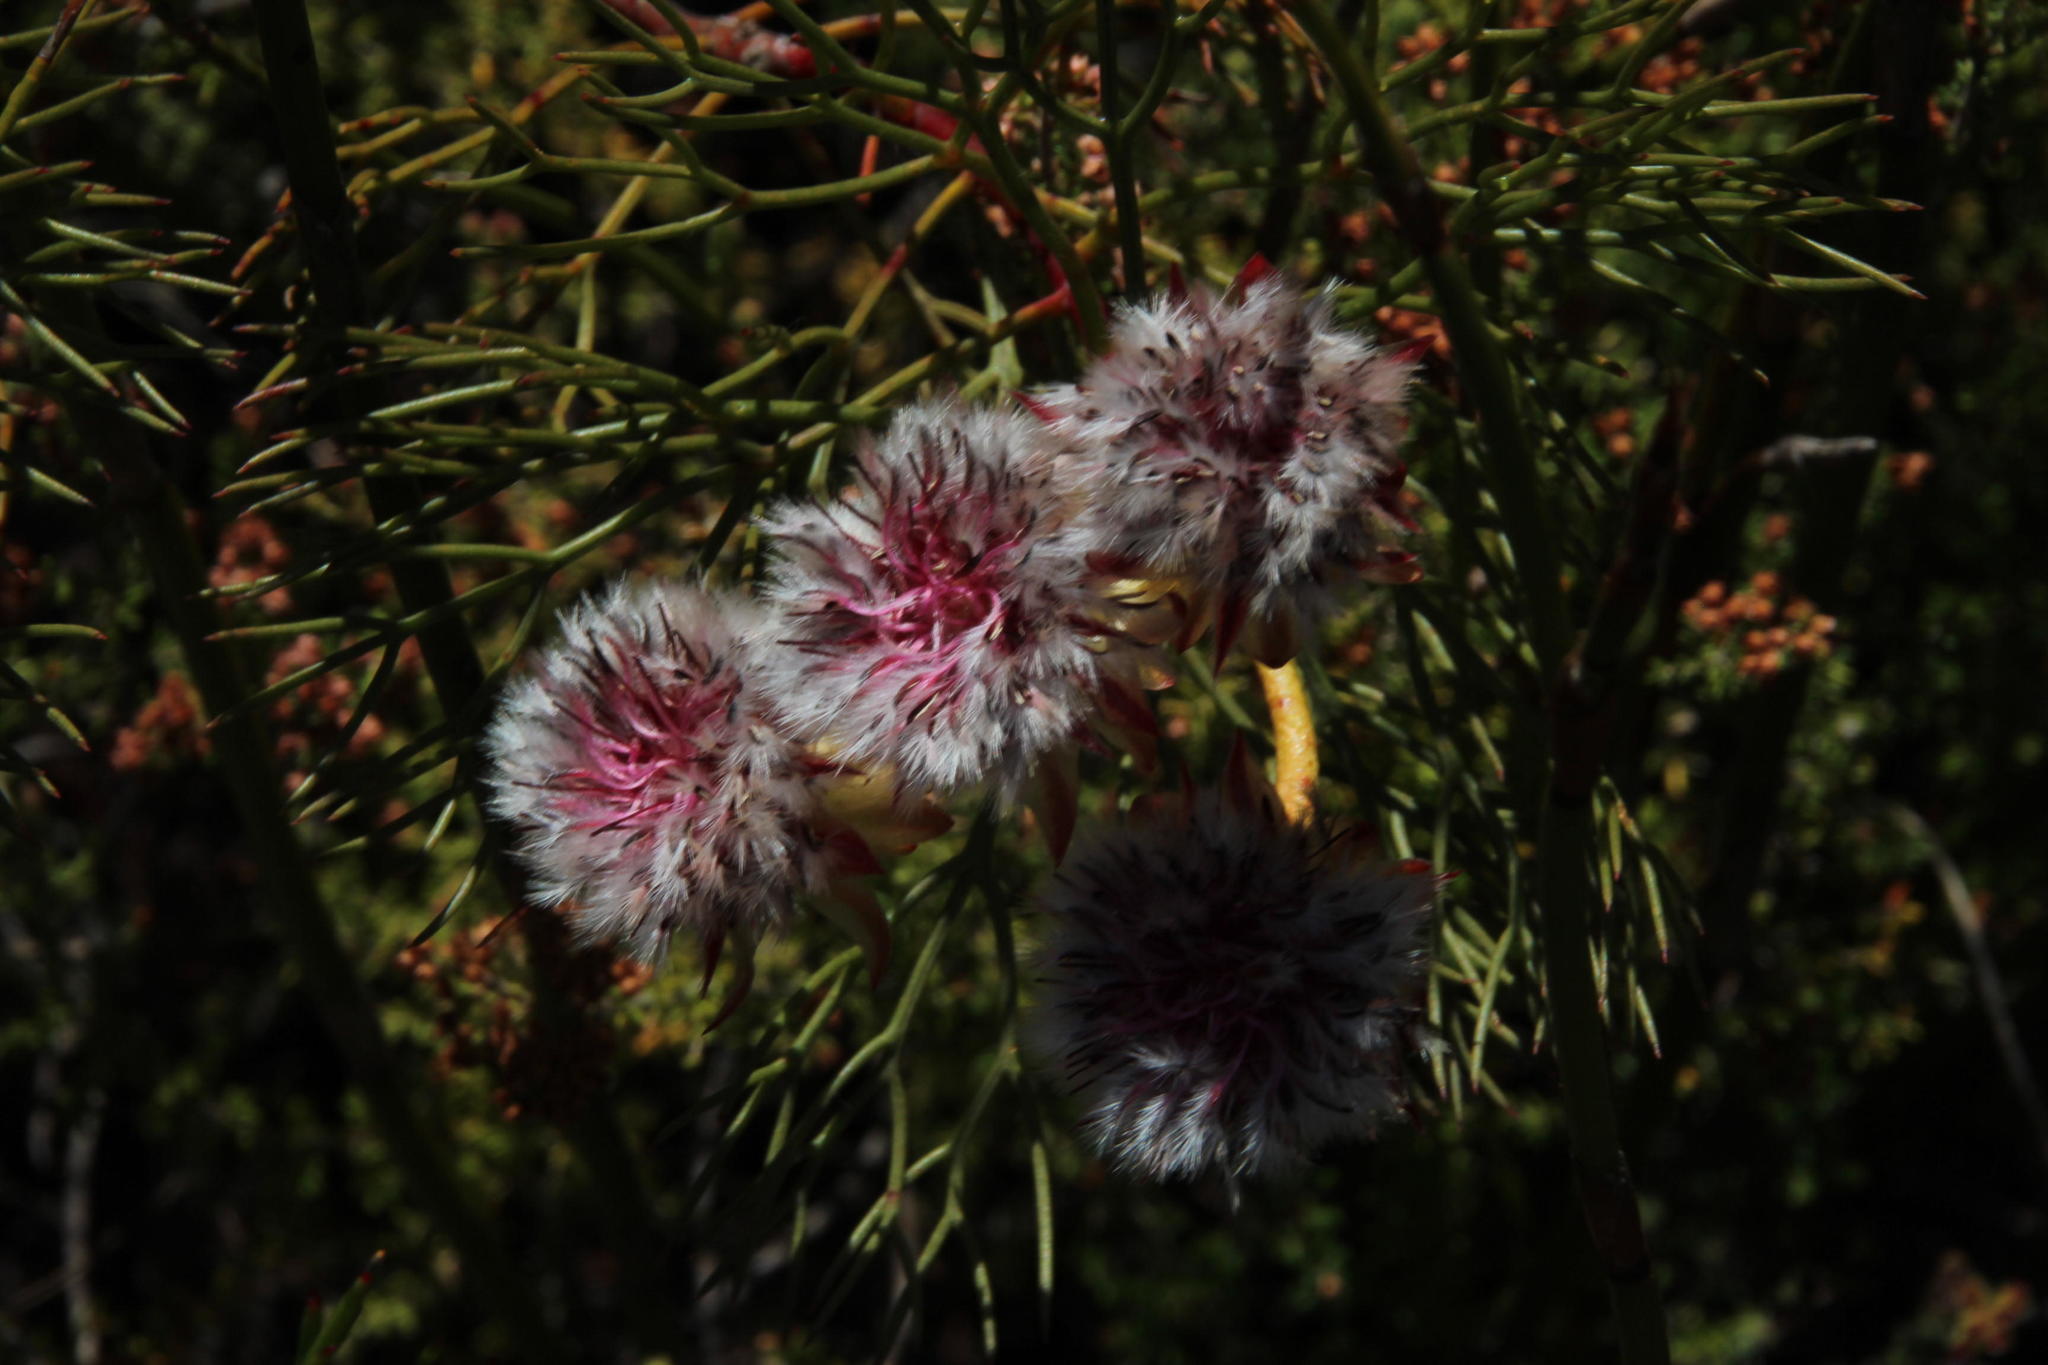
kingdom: Plantae
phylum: Tracheophyta
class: Magnoliopsida
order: Proteales
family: Proteaceae
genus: Serruria
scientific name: Serruria phylicoides
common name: Bearded spiderhead
